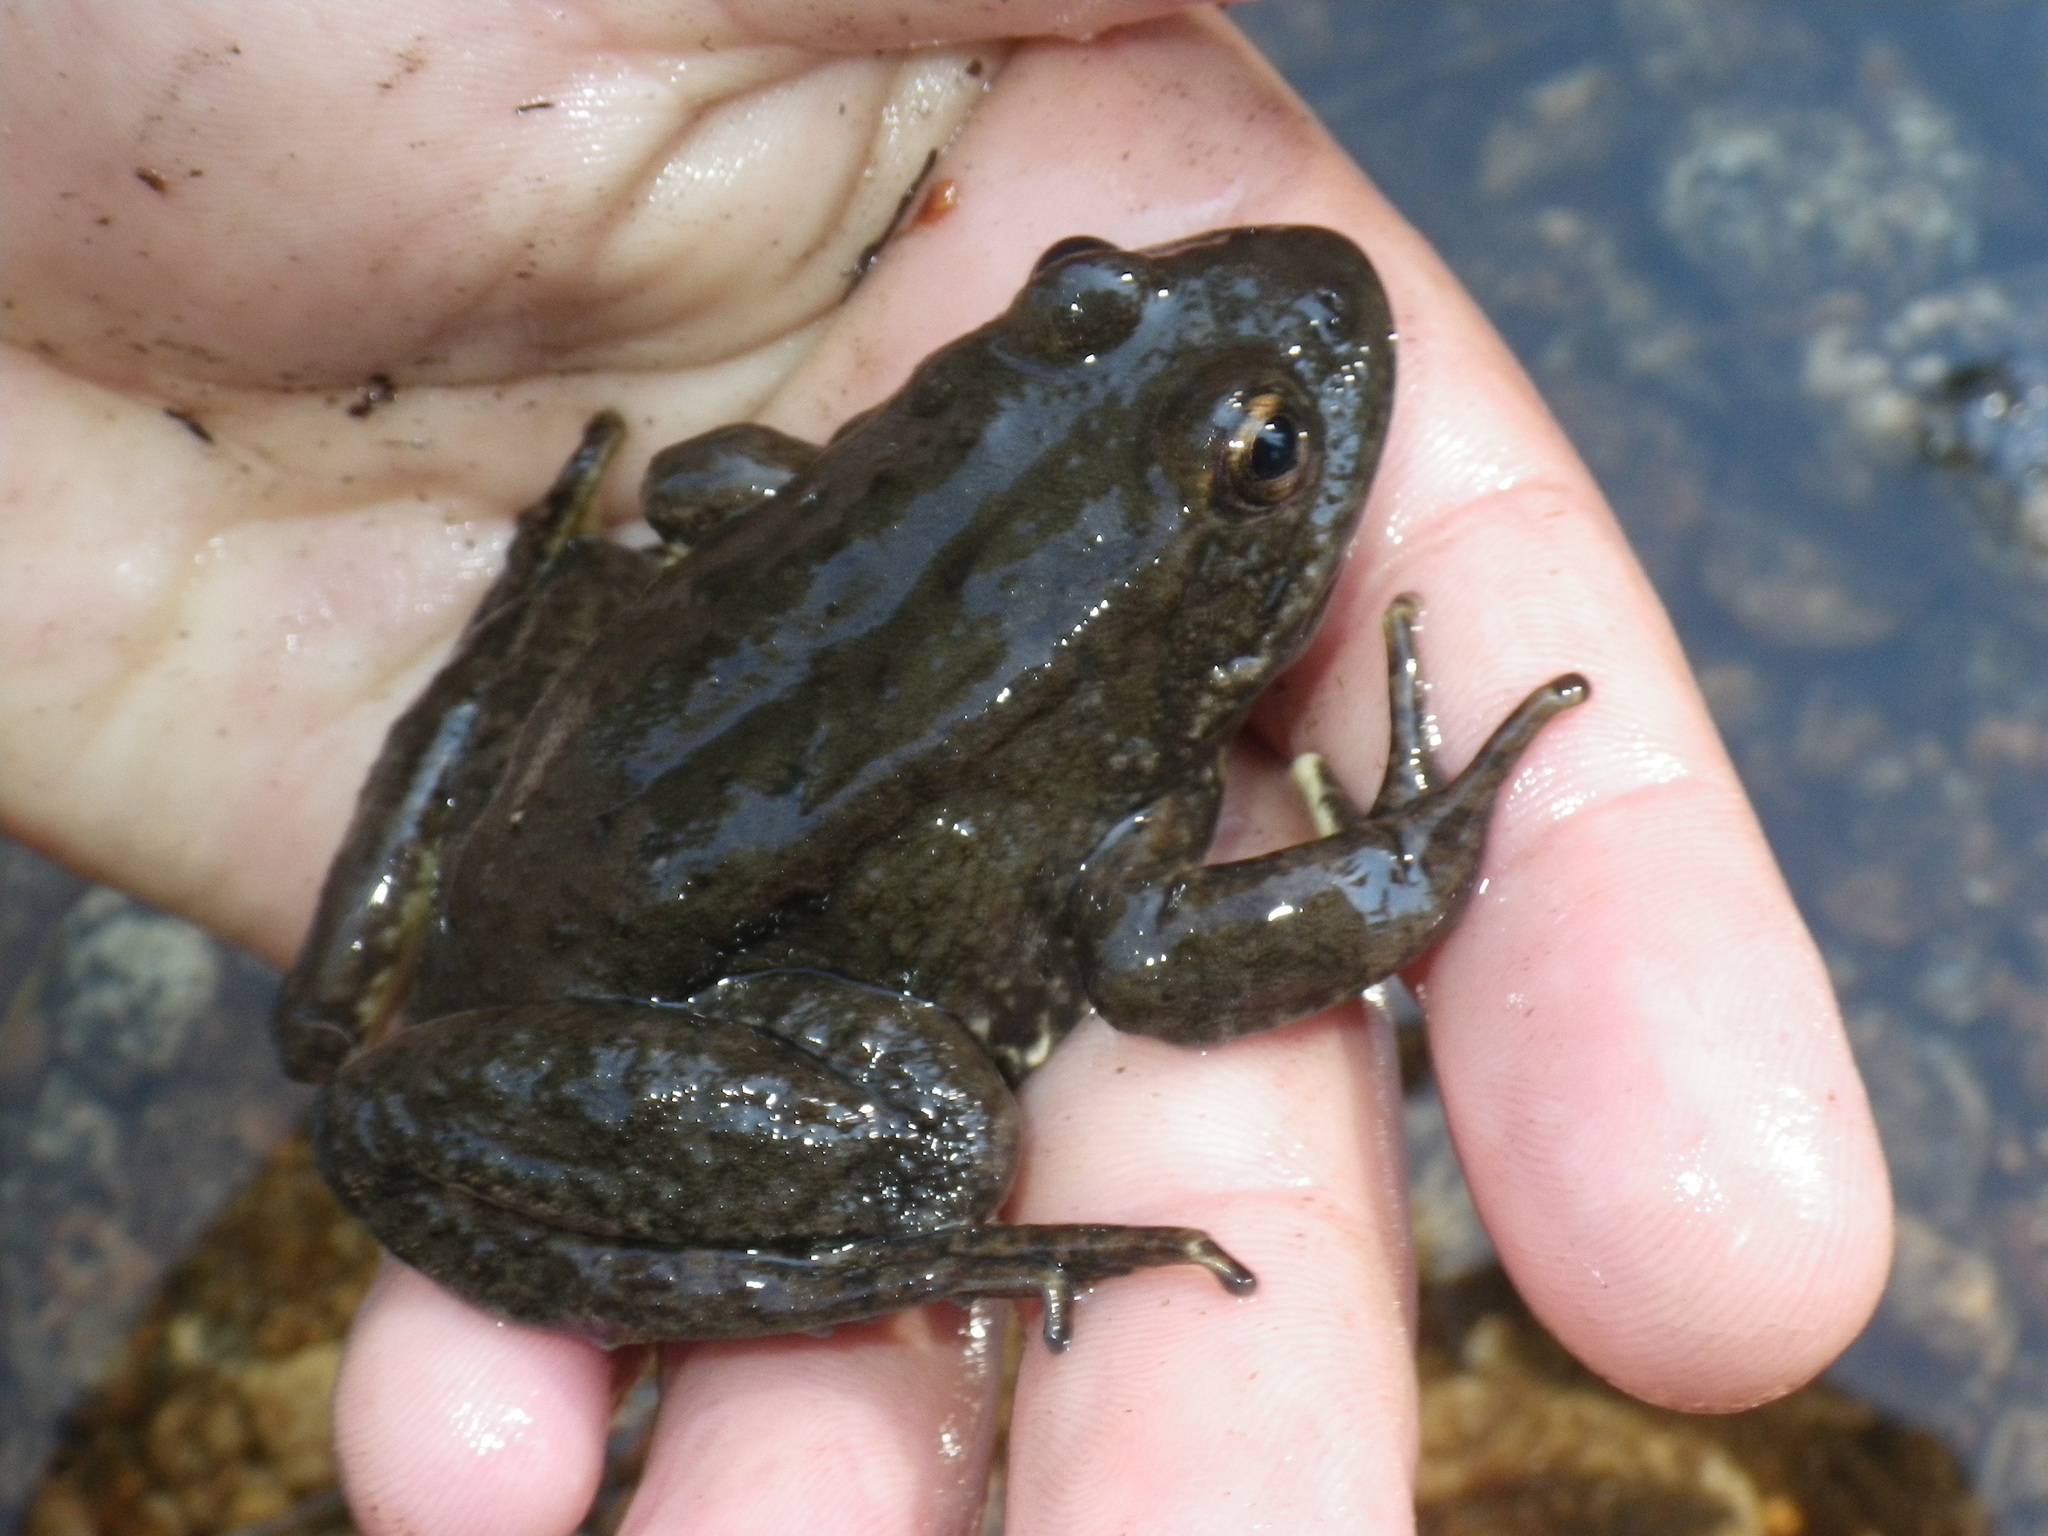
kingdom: Animalia
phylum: Chordata
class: Amphibia
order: Anura
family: Ranidae
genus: Rana
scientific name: Rana sierrae
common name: Sierra nevada yellow-legged frog
